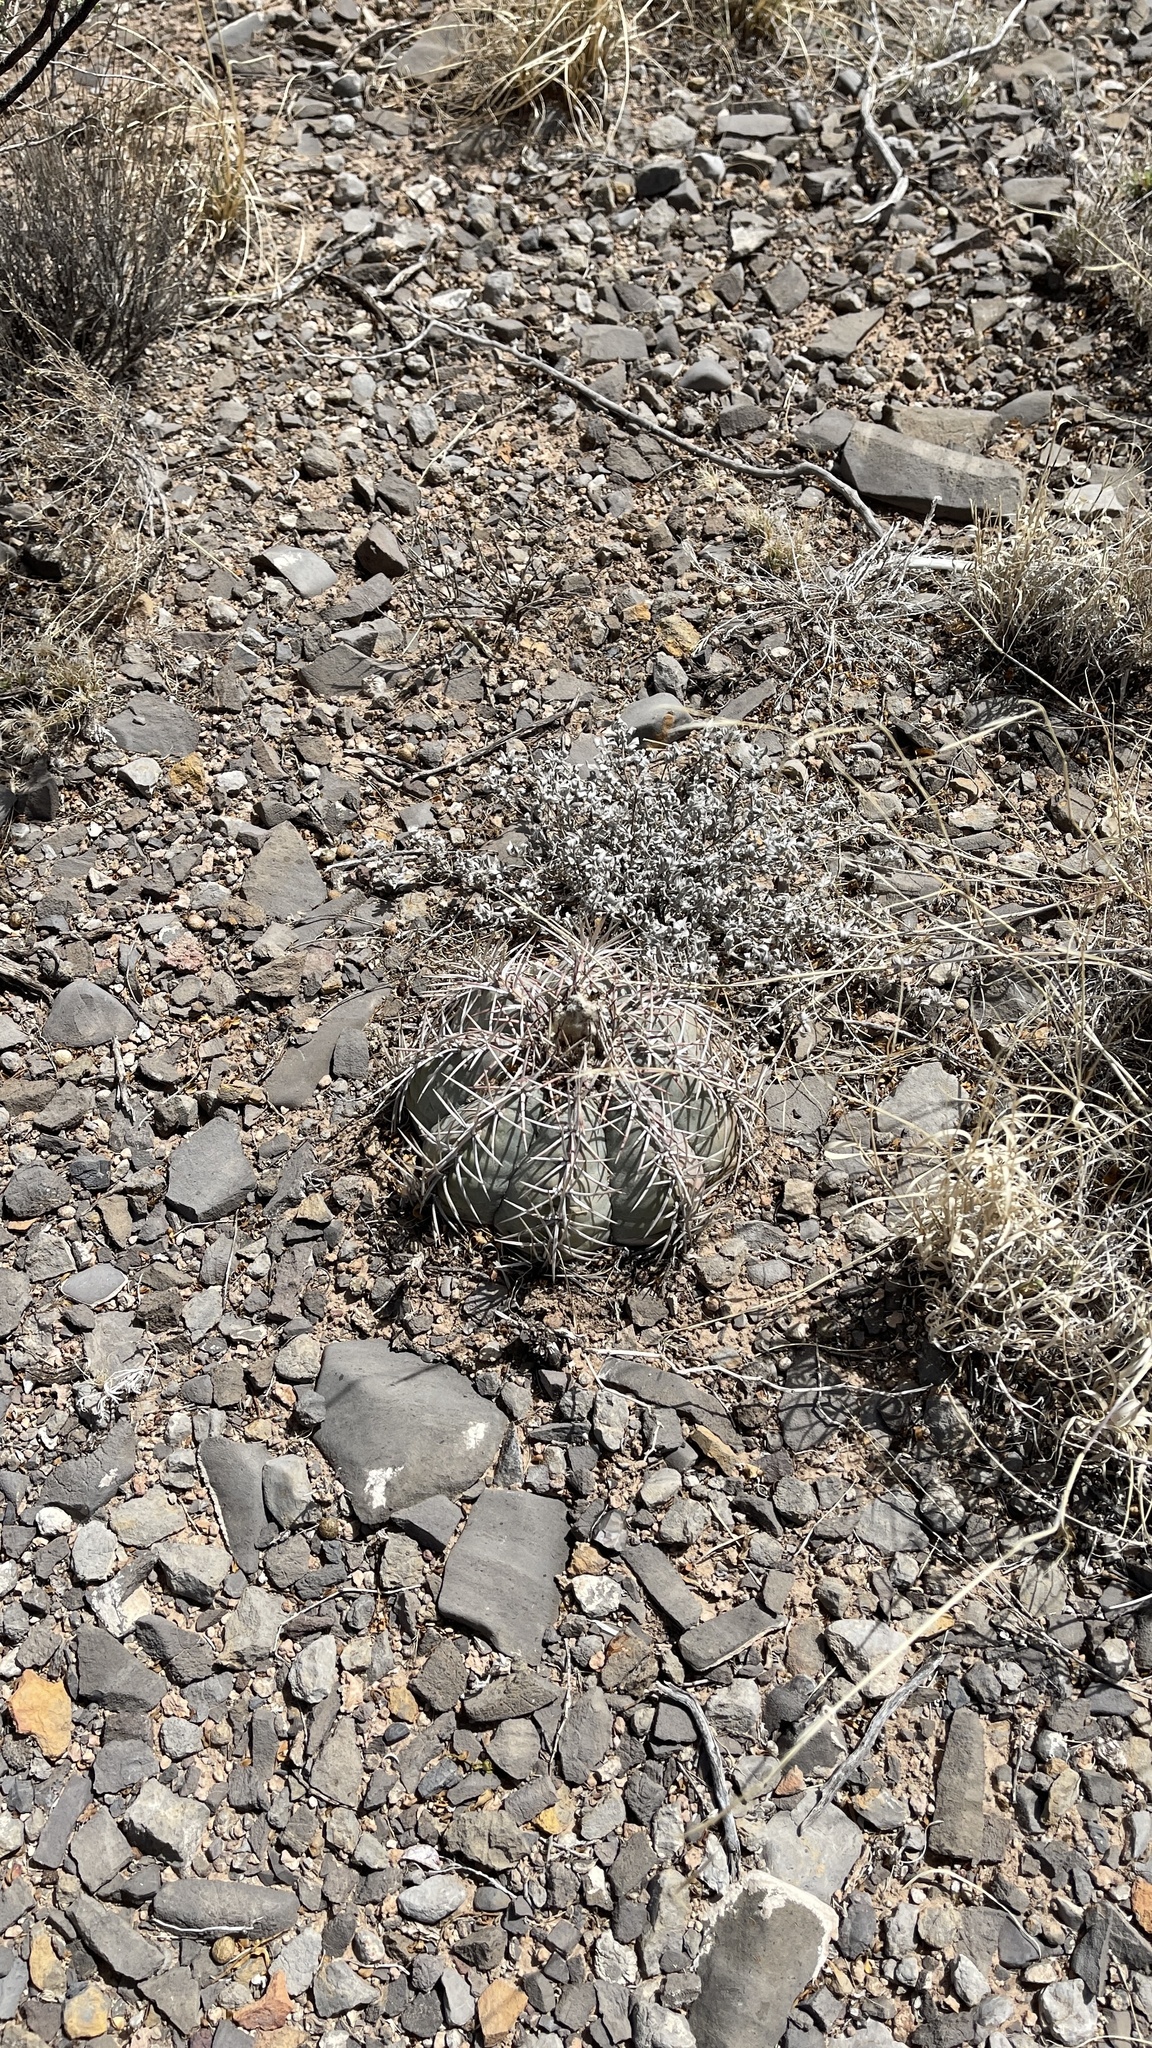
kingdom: Plantae
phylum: Tracheophyta
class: Magnoliopsida
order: Caryophyllales
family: Cactaceae
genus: Echinocactus
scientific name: Echinocactus horizonthalonius
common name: Devilshead
